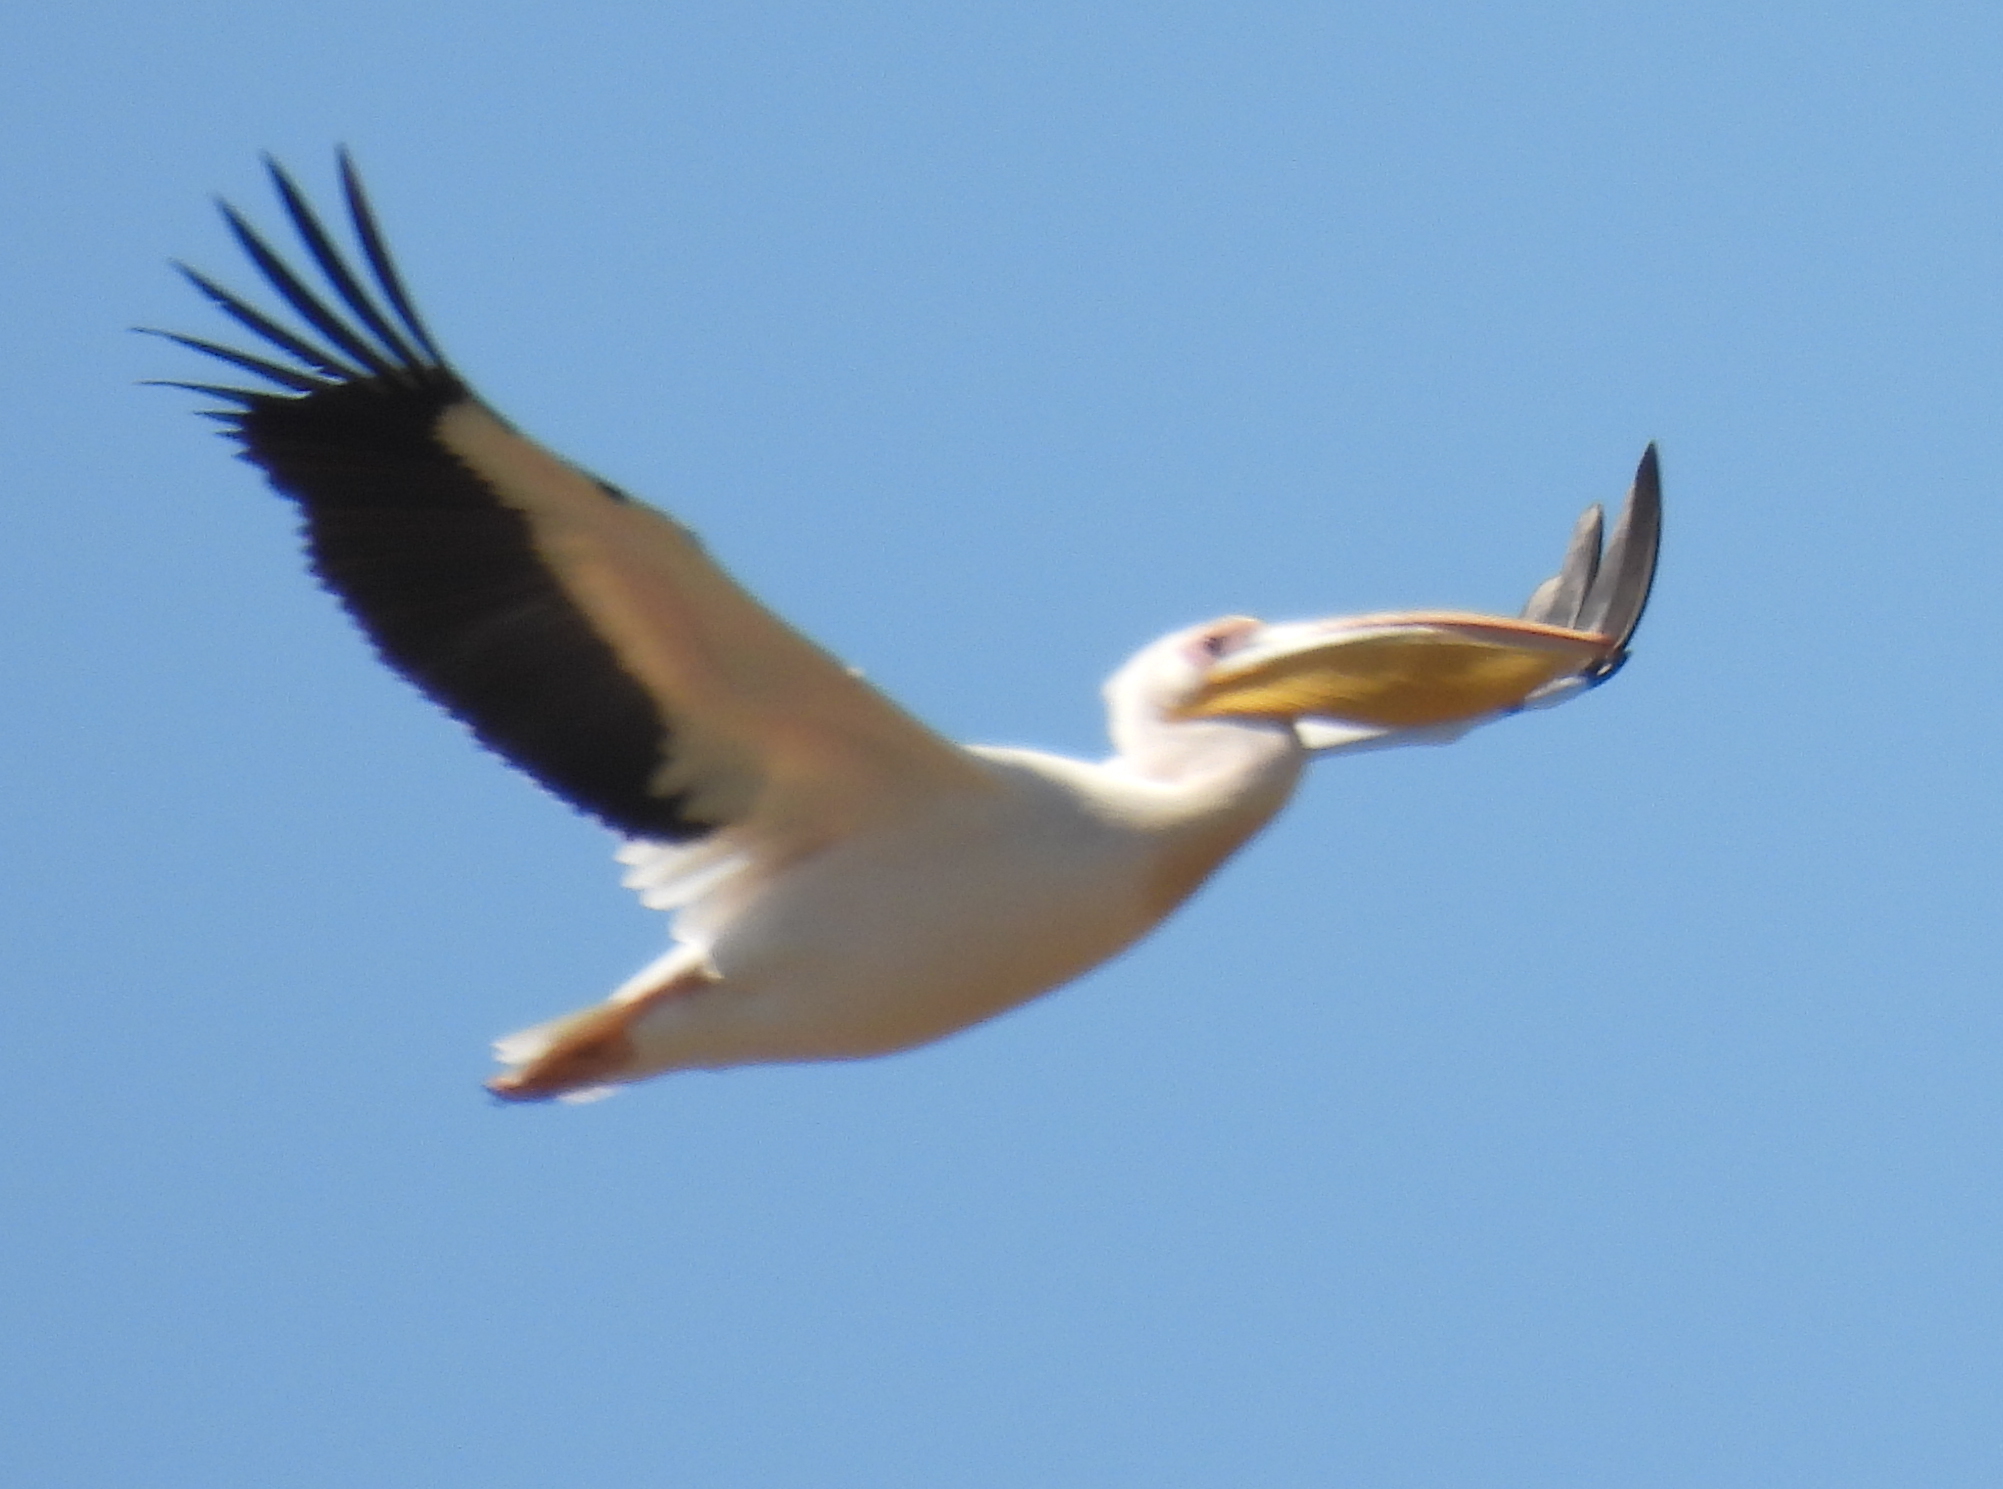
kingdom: Animalia
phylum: Chordata
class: Aves
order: Pelecaniformes
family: Pelecanidae
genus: Pelecanus
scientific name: Pelecanus onocrotalus
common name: Great white pelican
